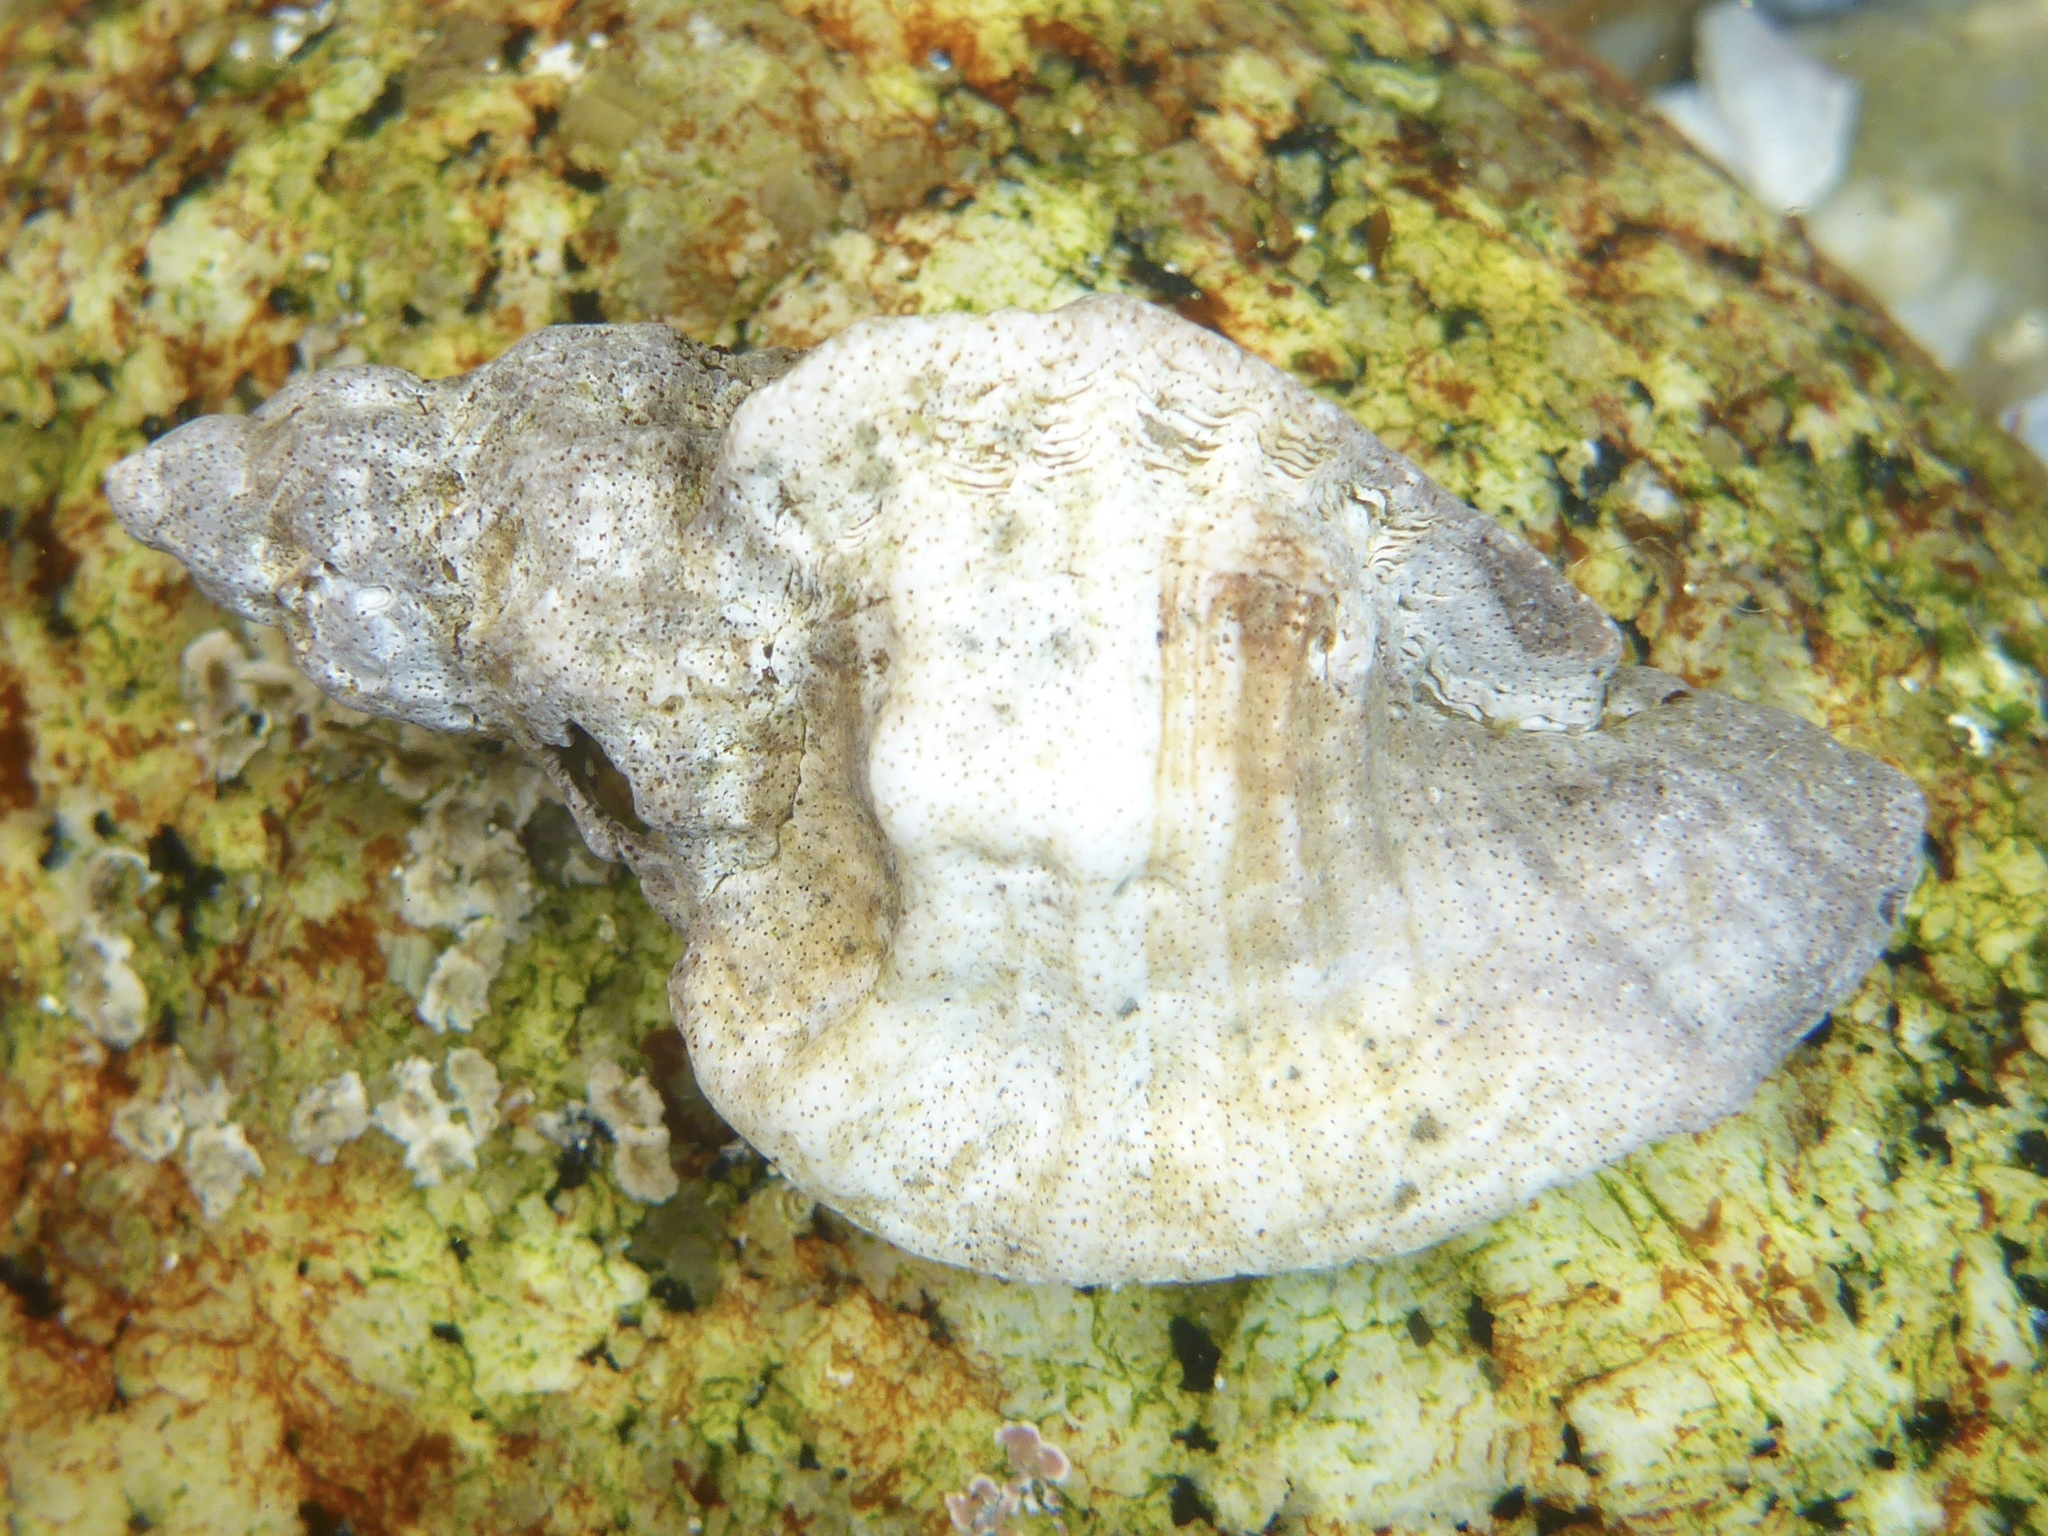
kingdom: Animalia
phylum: Mollusca
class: Gastropoda
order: Neogastropoda
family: Muricidae
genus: Ceratostoma
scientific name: Ceratostoma foliatum
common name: Foliate thorn purpura
